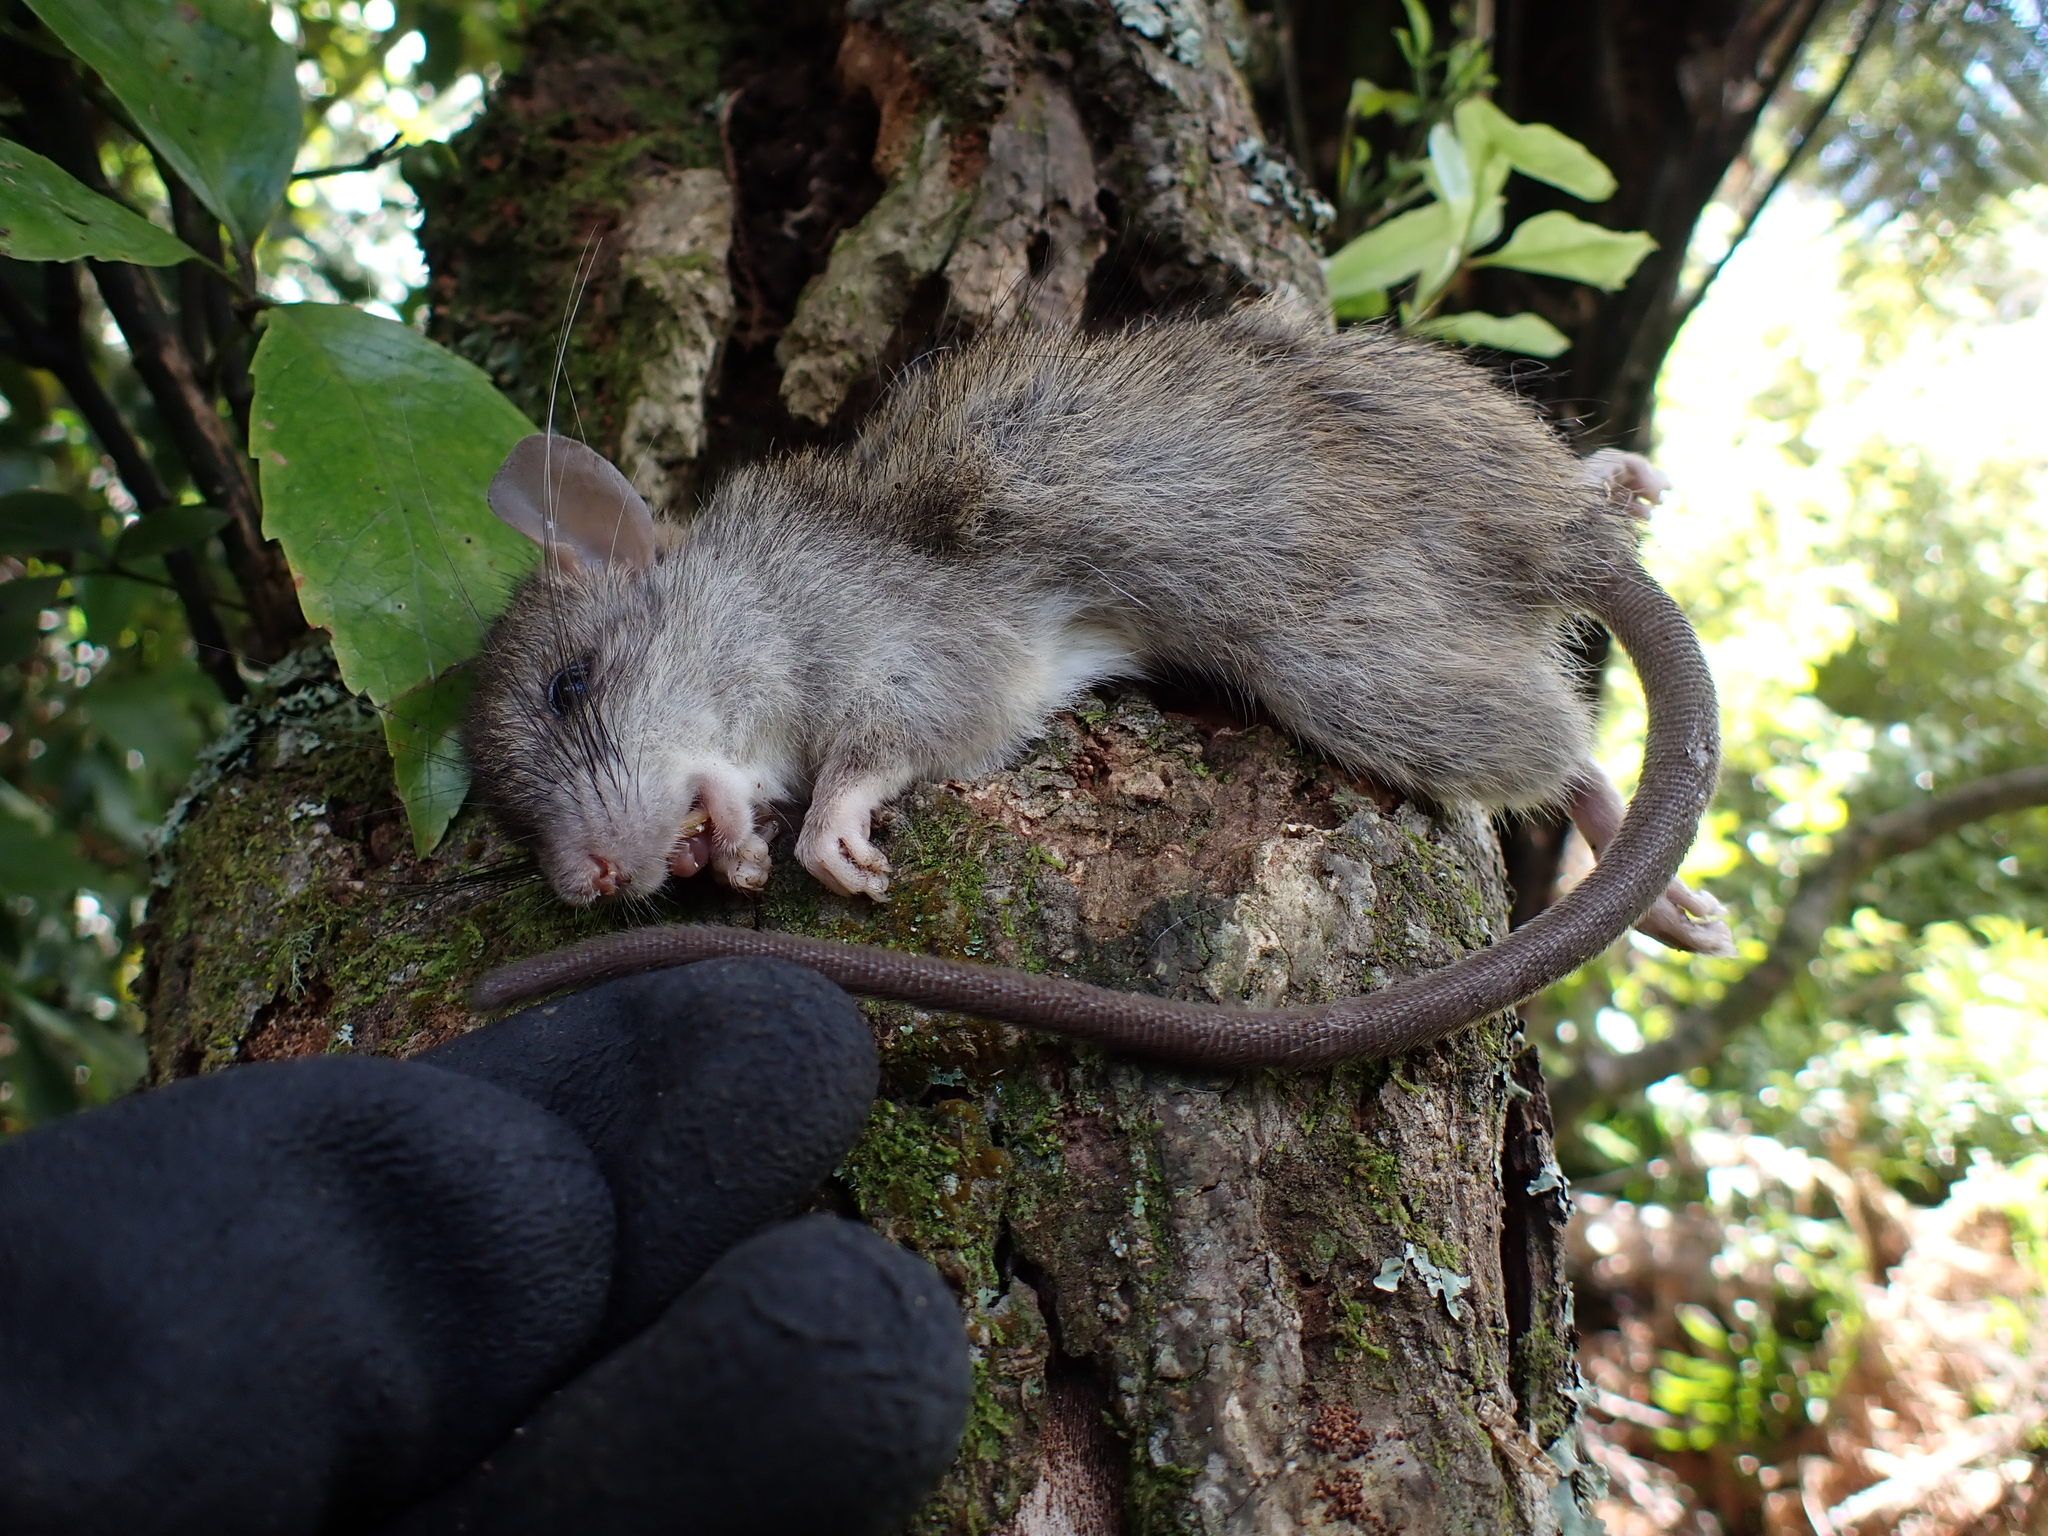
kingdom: Animalia
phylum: Chordata
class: Mammalia
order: Rodentia
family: Muridae
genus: Rattus
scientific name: Rattus rattus
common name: Black rat
